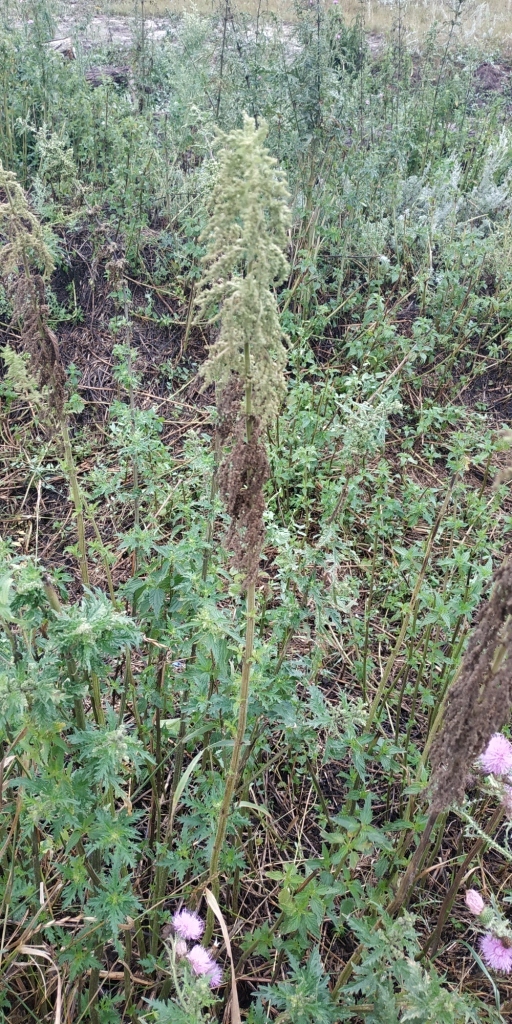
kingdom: Plantae
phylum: Tracheophyta
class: Magnoliopsida
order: Rosales
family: Urticaceae
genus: Urtica
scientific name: Urtica dioica
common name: Common nettle
